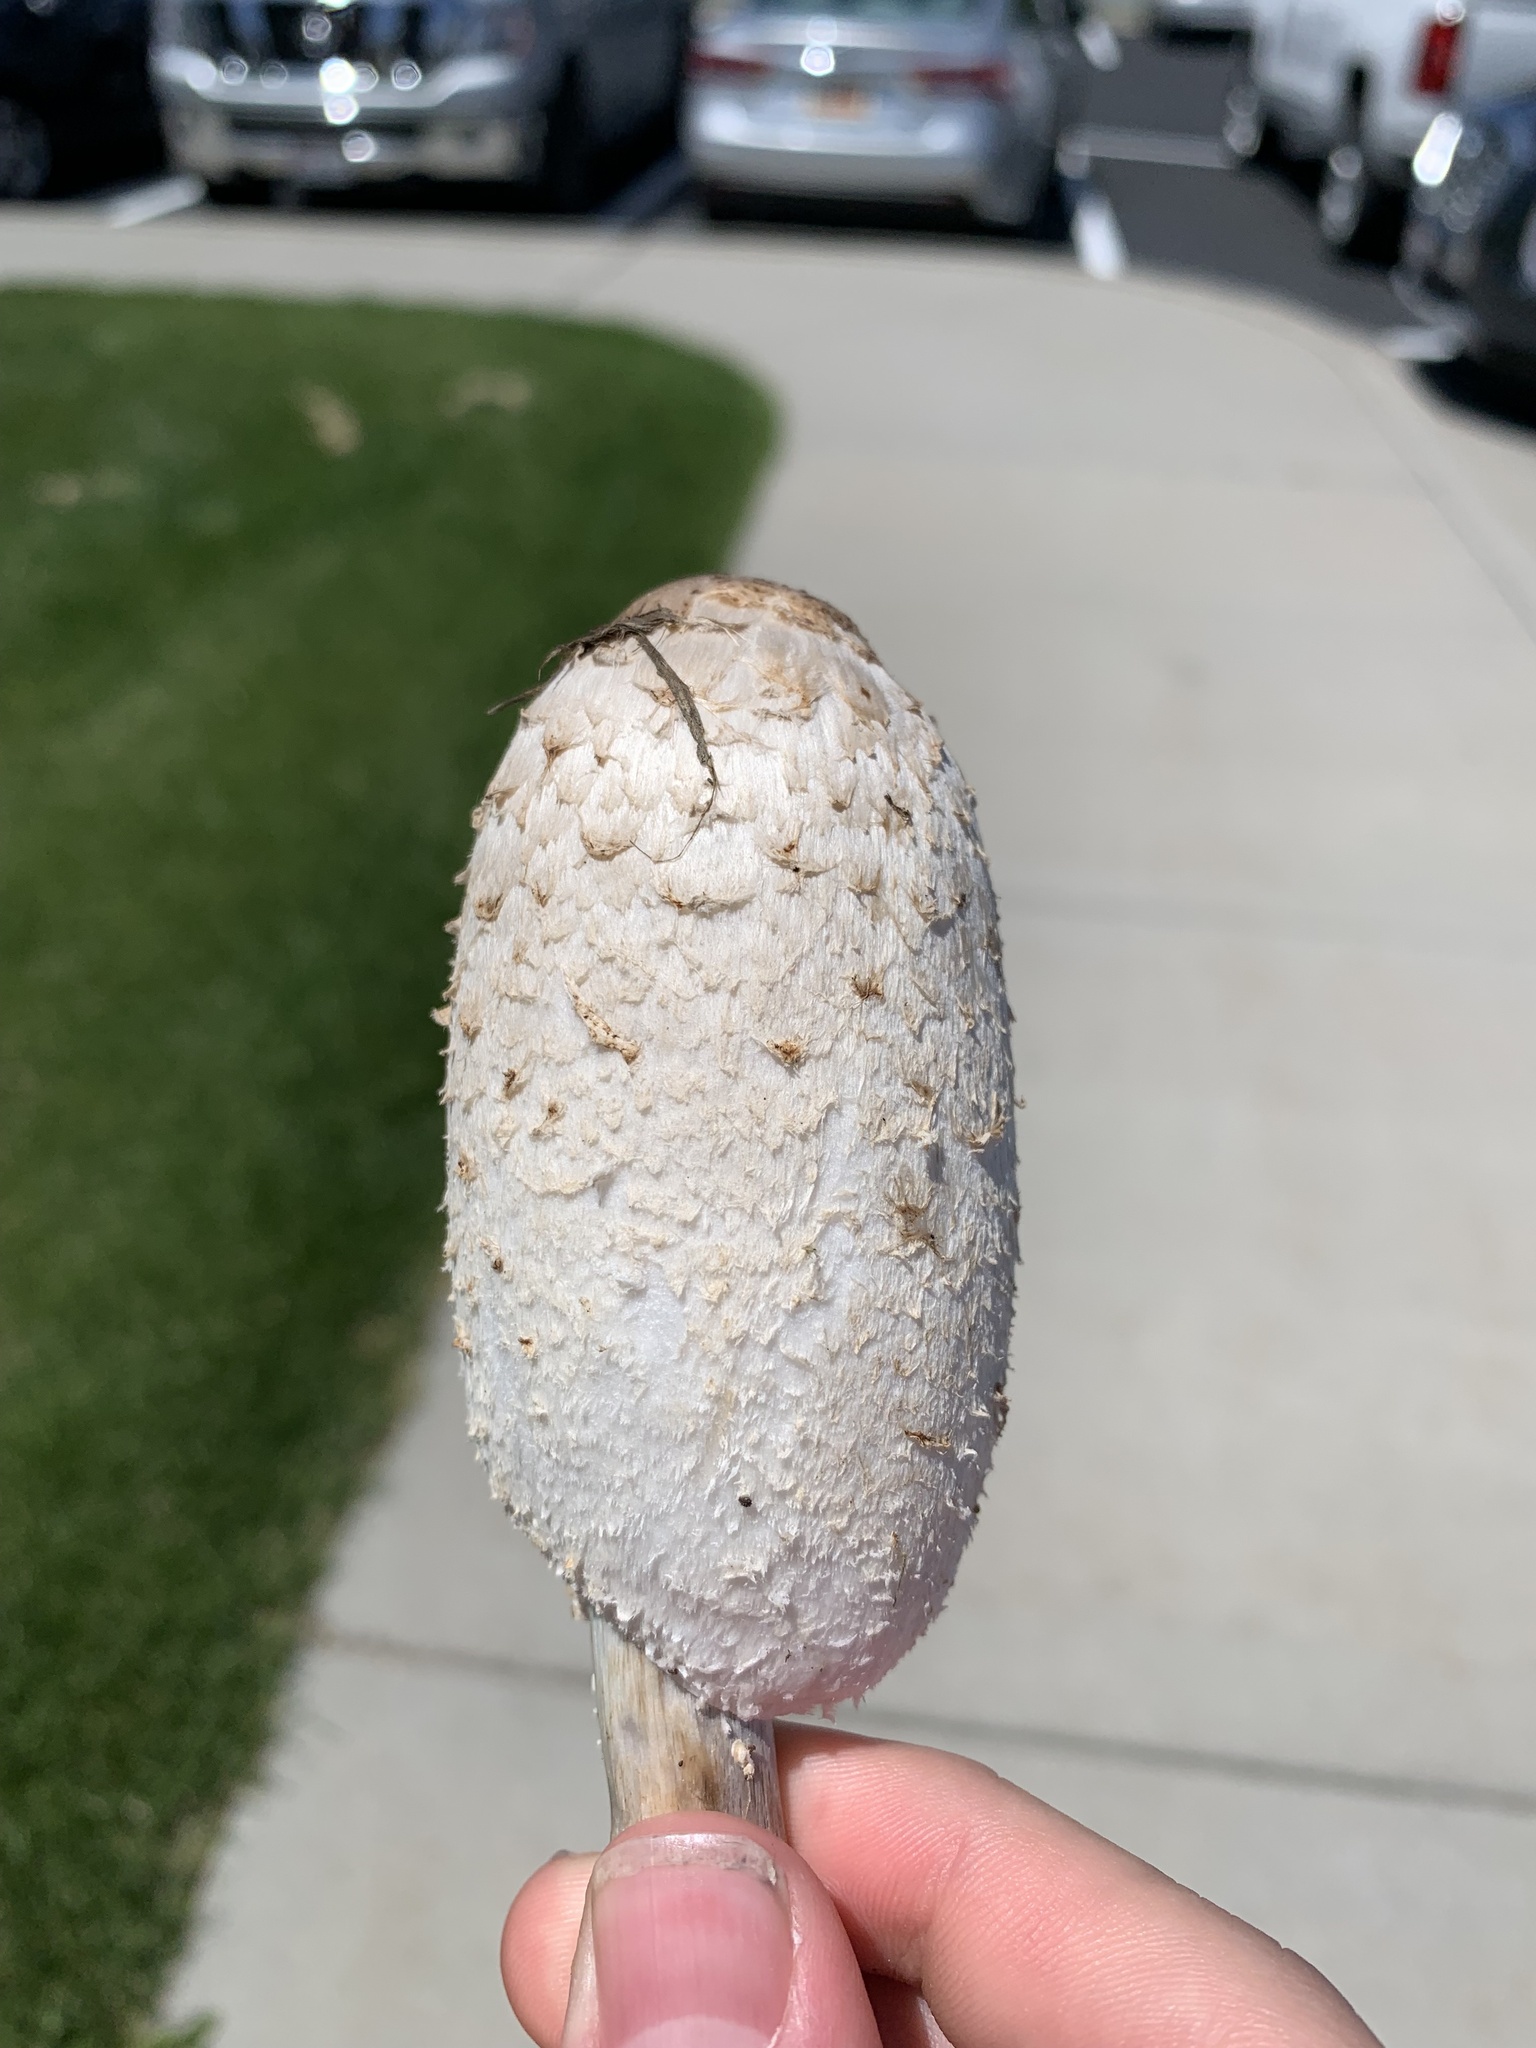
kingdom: Fungi
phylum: Basidiomycota
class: Agaricomycetes
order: Agaricales
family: Agaricaceae
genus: Coprinus
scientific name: Coprinus comatus
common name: Lawyer's wig
